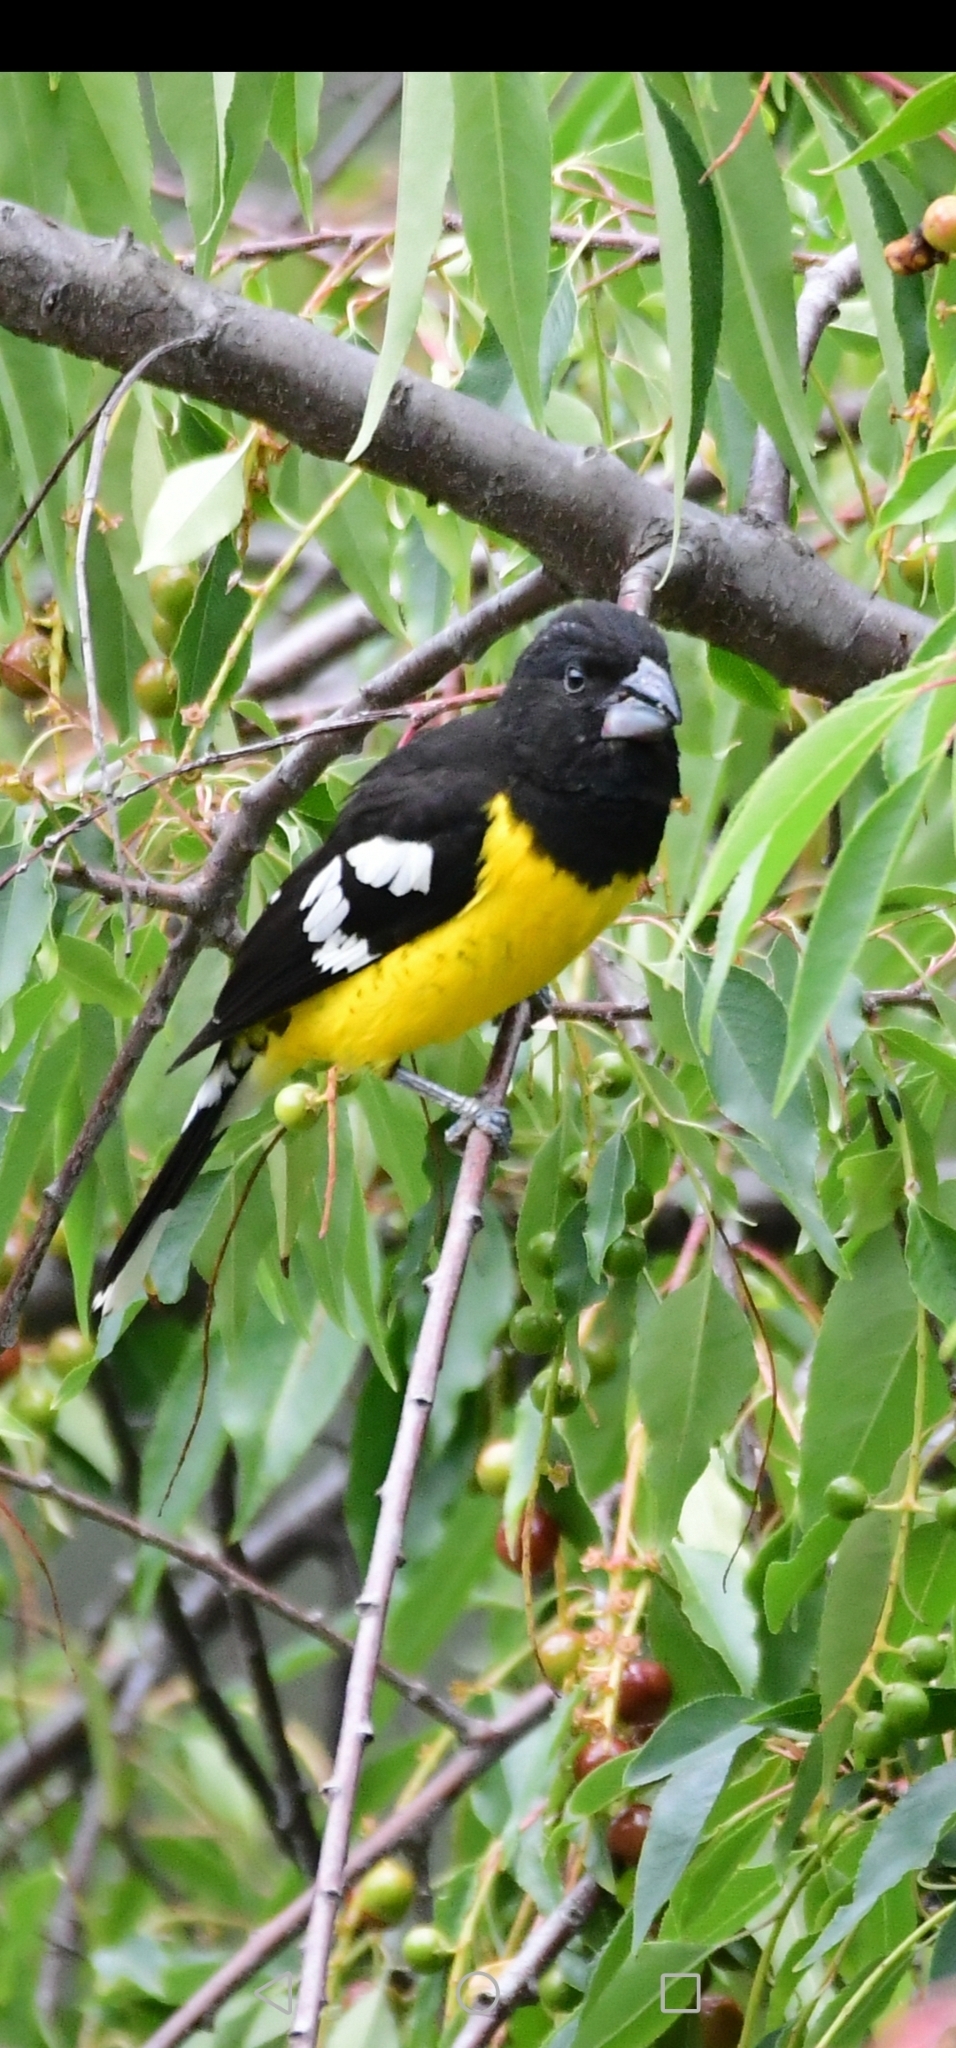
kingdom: Animalia
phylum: Chordata
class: Aves
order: Passeriformes
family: Cardinalidae
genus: Pheucticus
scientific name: Pheucticus aureoventris
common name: Black-backed grosbeak
